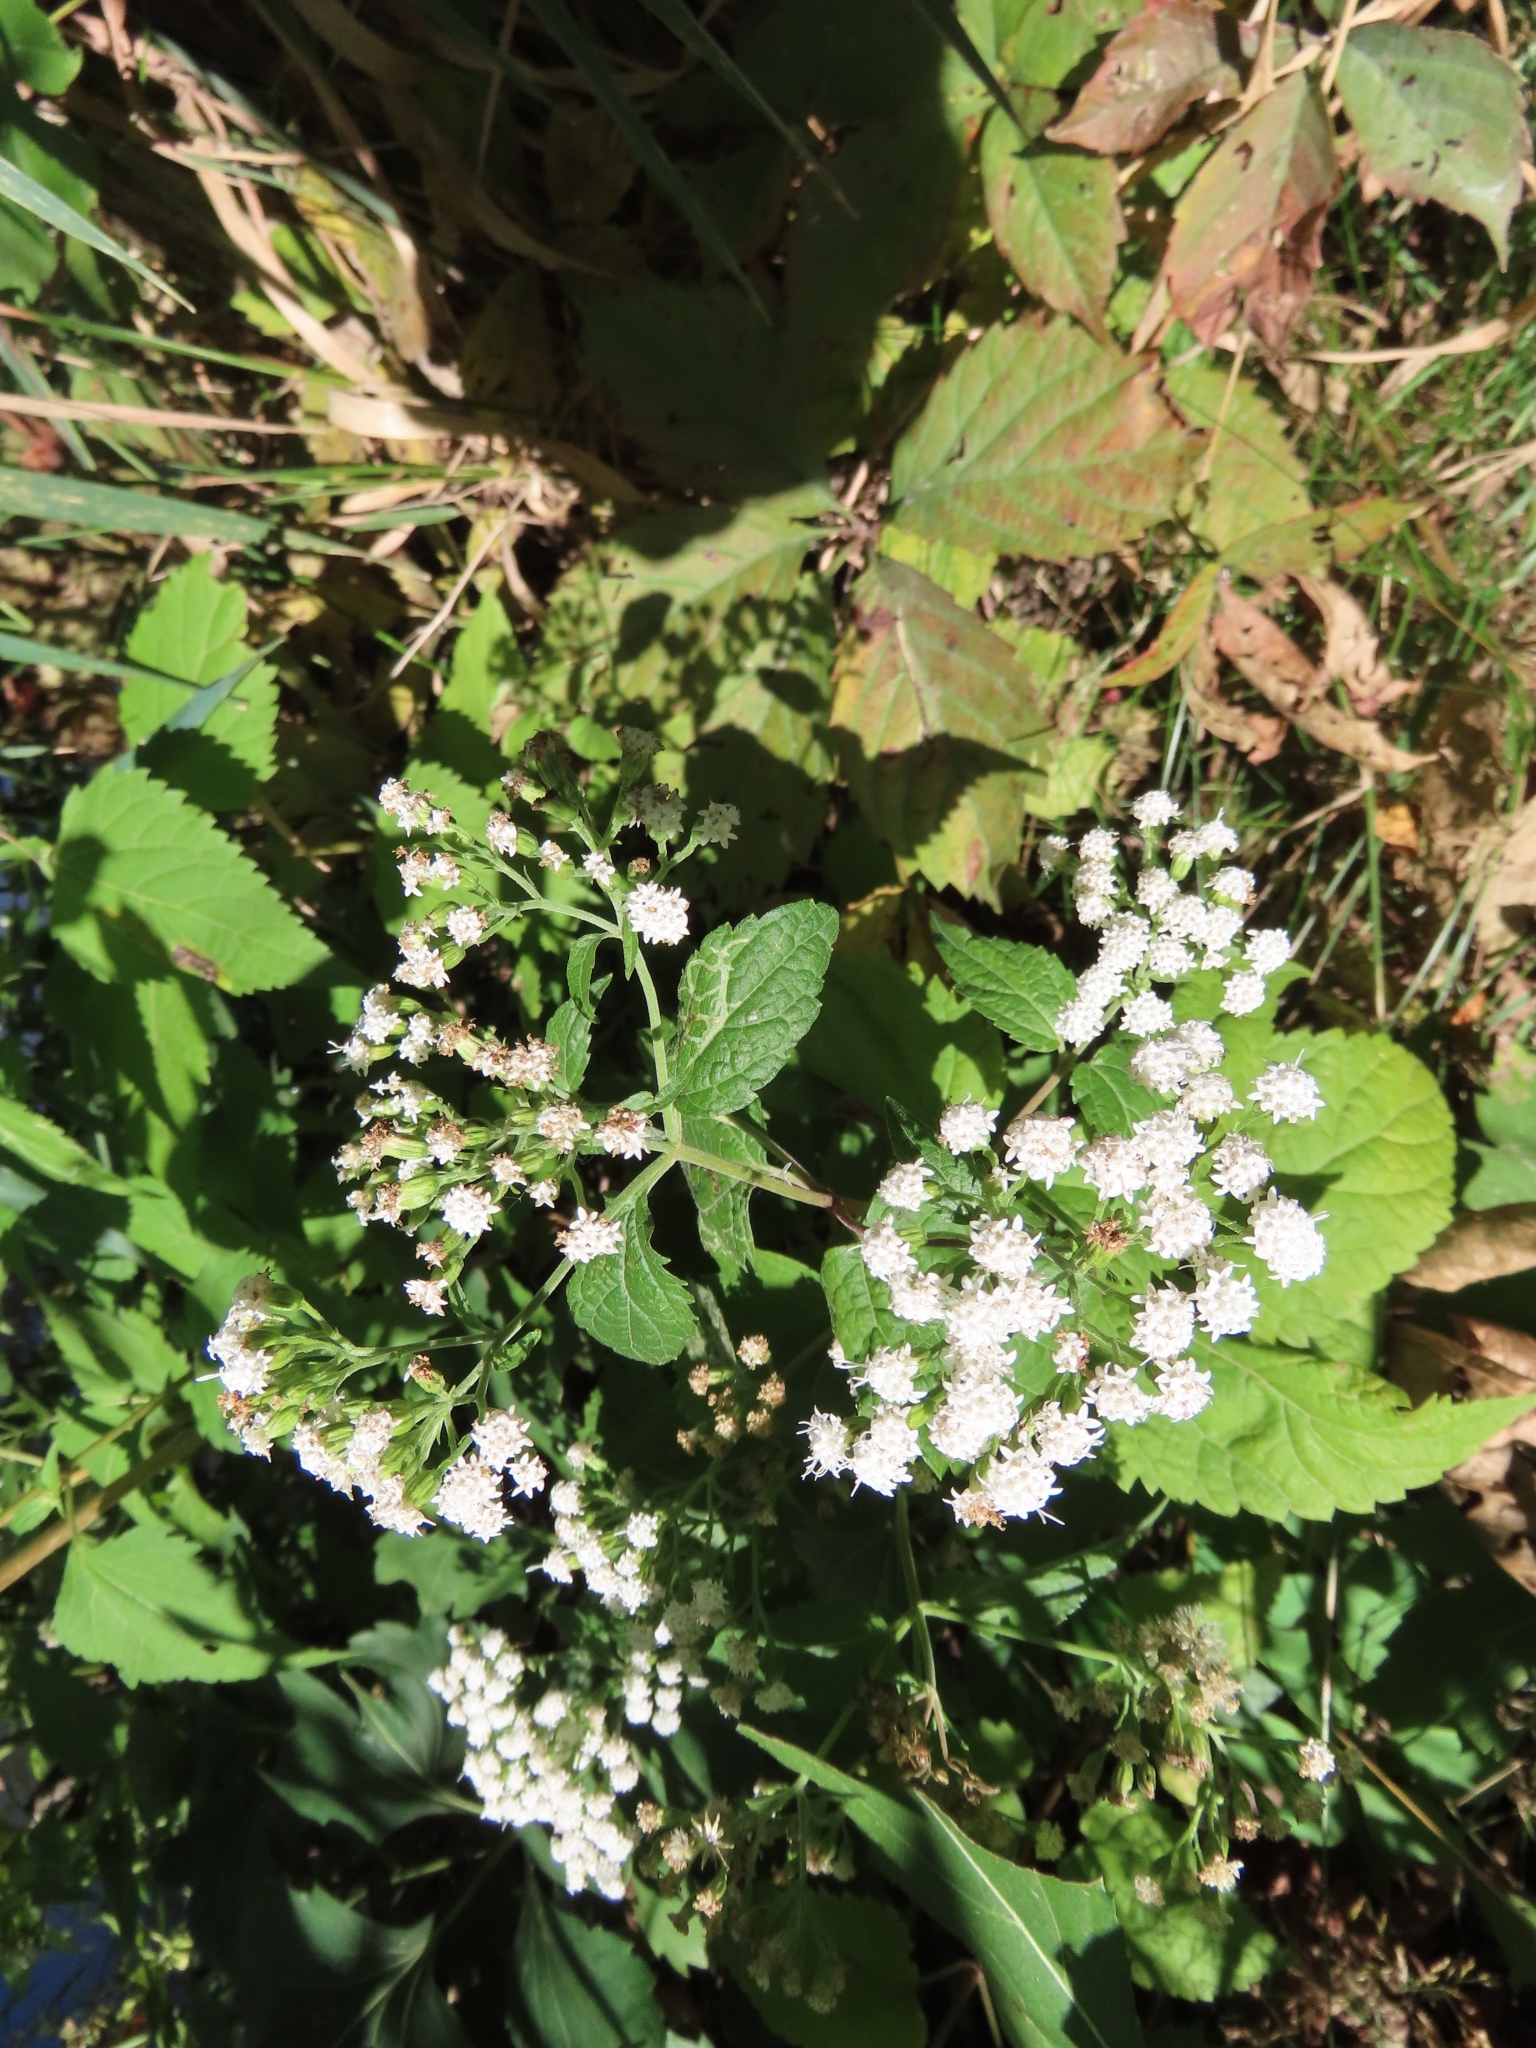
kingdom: Plantae
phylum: Tracheophyta
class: Magnoliopsida
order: Asterales
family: Asteraceae
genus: Ageratina
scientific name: Ageratina altissima
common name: White snakeroot
